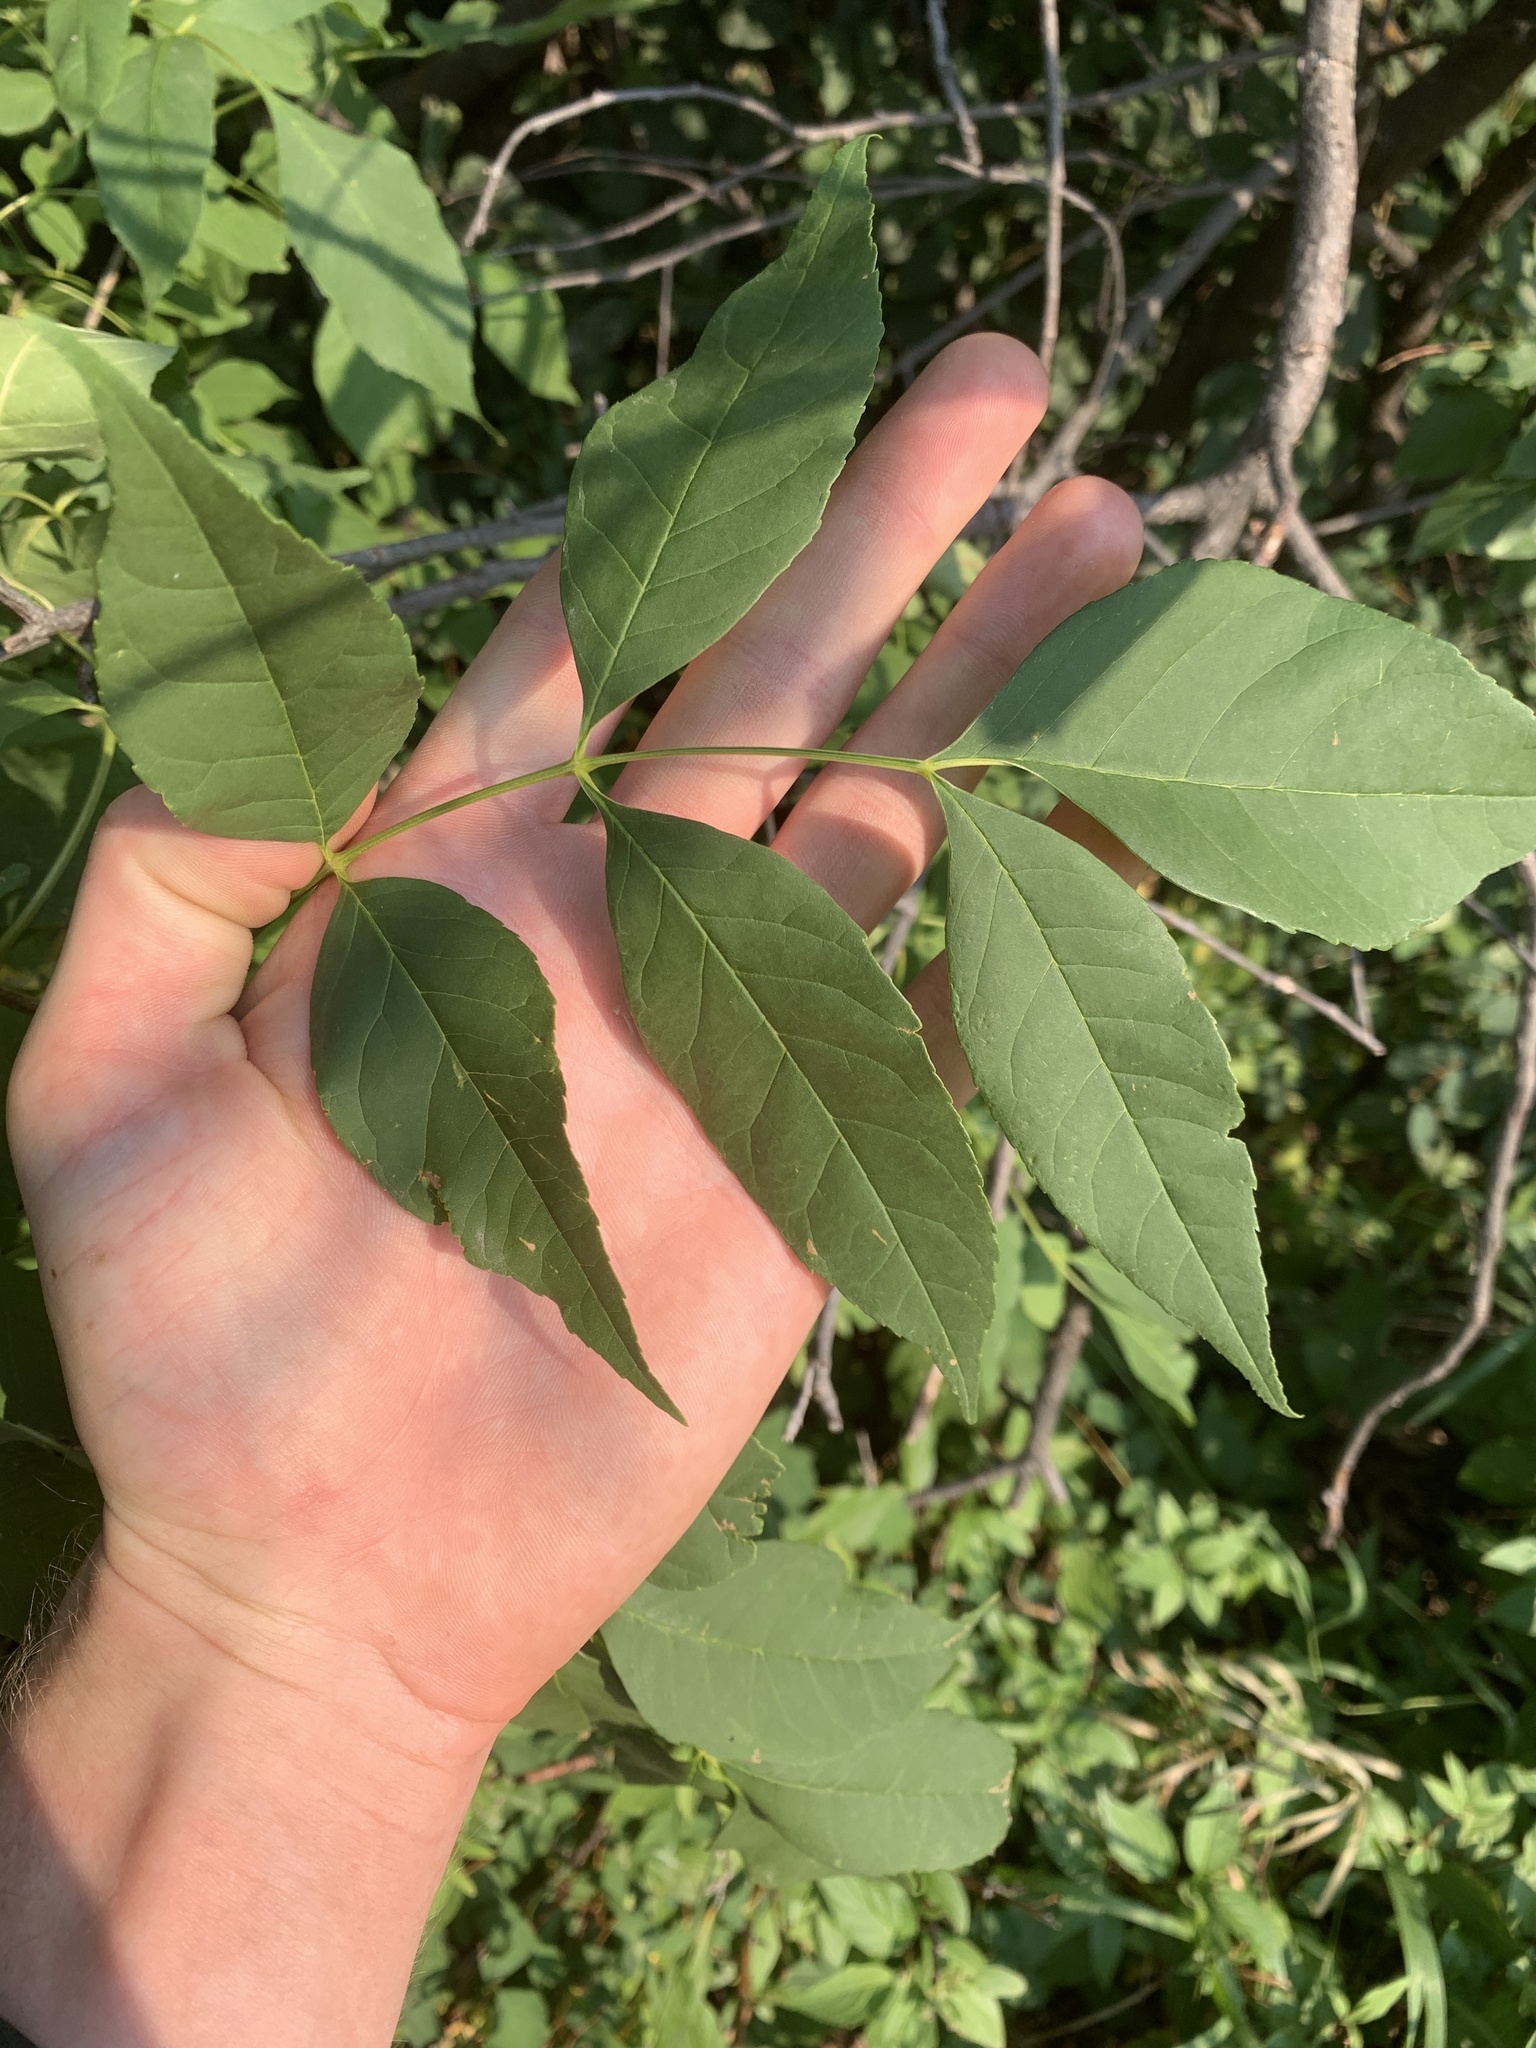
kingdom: Plantae
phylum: Tracheophyta
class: Magnoliopsida
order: Lamiales
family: Oleaceae
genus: Fraxinus
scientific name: Fraxinus pennsylvanica
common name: Green ash
